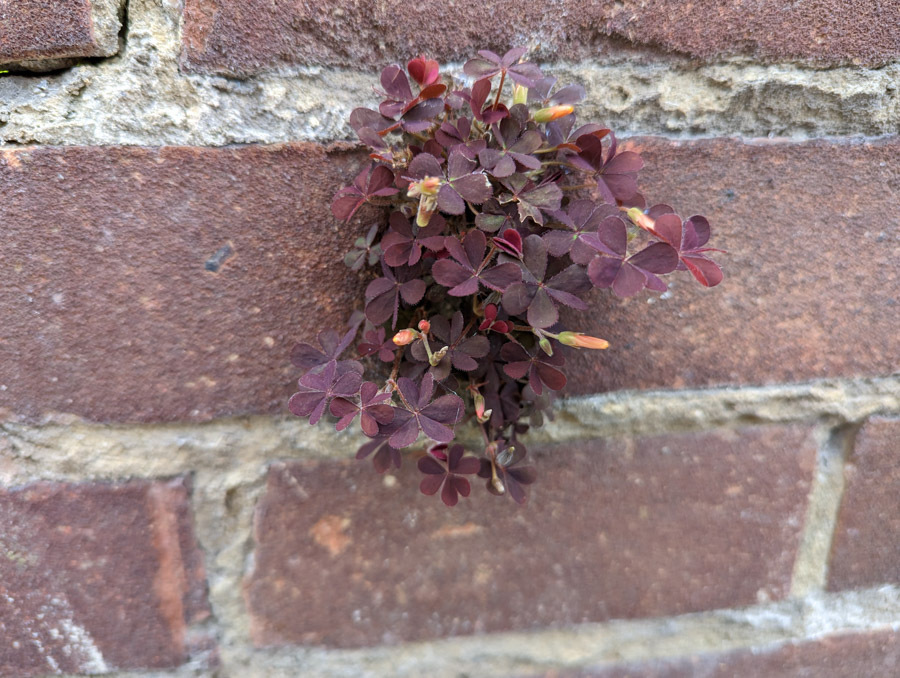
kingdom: Plantae
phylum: Tracheophyta
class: Magnoliopsida
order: Oxalidales
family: Oxalidaceae
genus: Oxalis
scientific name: Oxalis corniculata
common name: Procumbent yellow-sorrel
